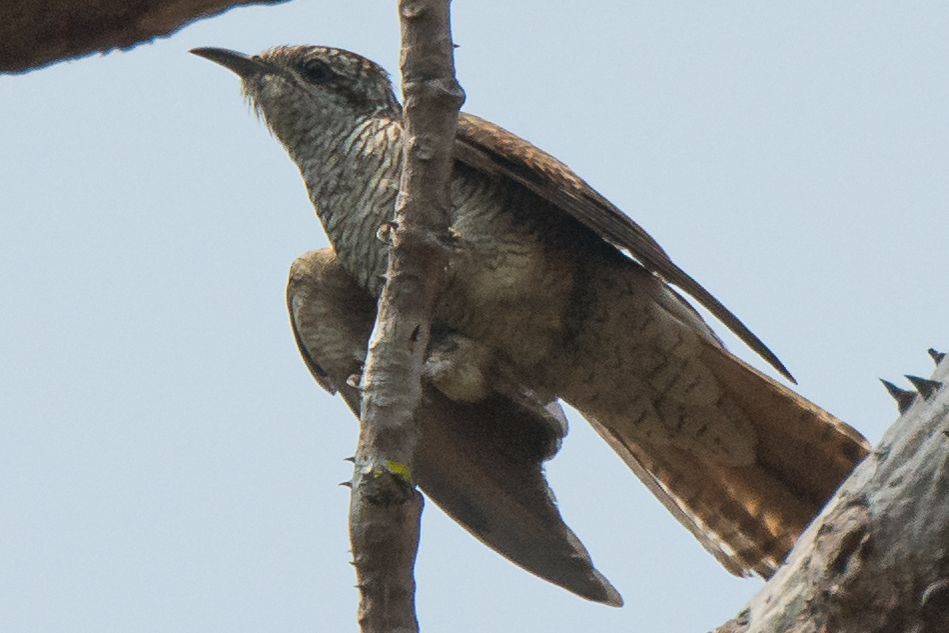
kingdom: Animalia
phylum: Chordata
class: Aves
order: Cuculiformes
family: Cuculidae
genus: Cacomantis
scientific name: Cacomantis sonneratii
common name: Banded bay cuckoo
